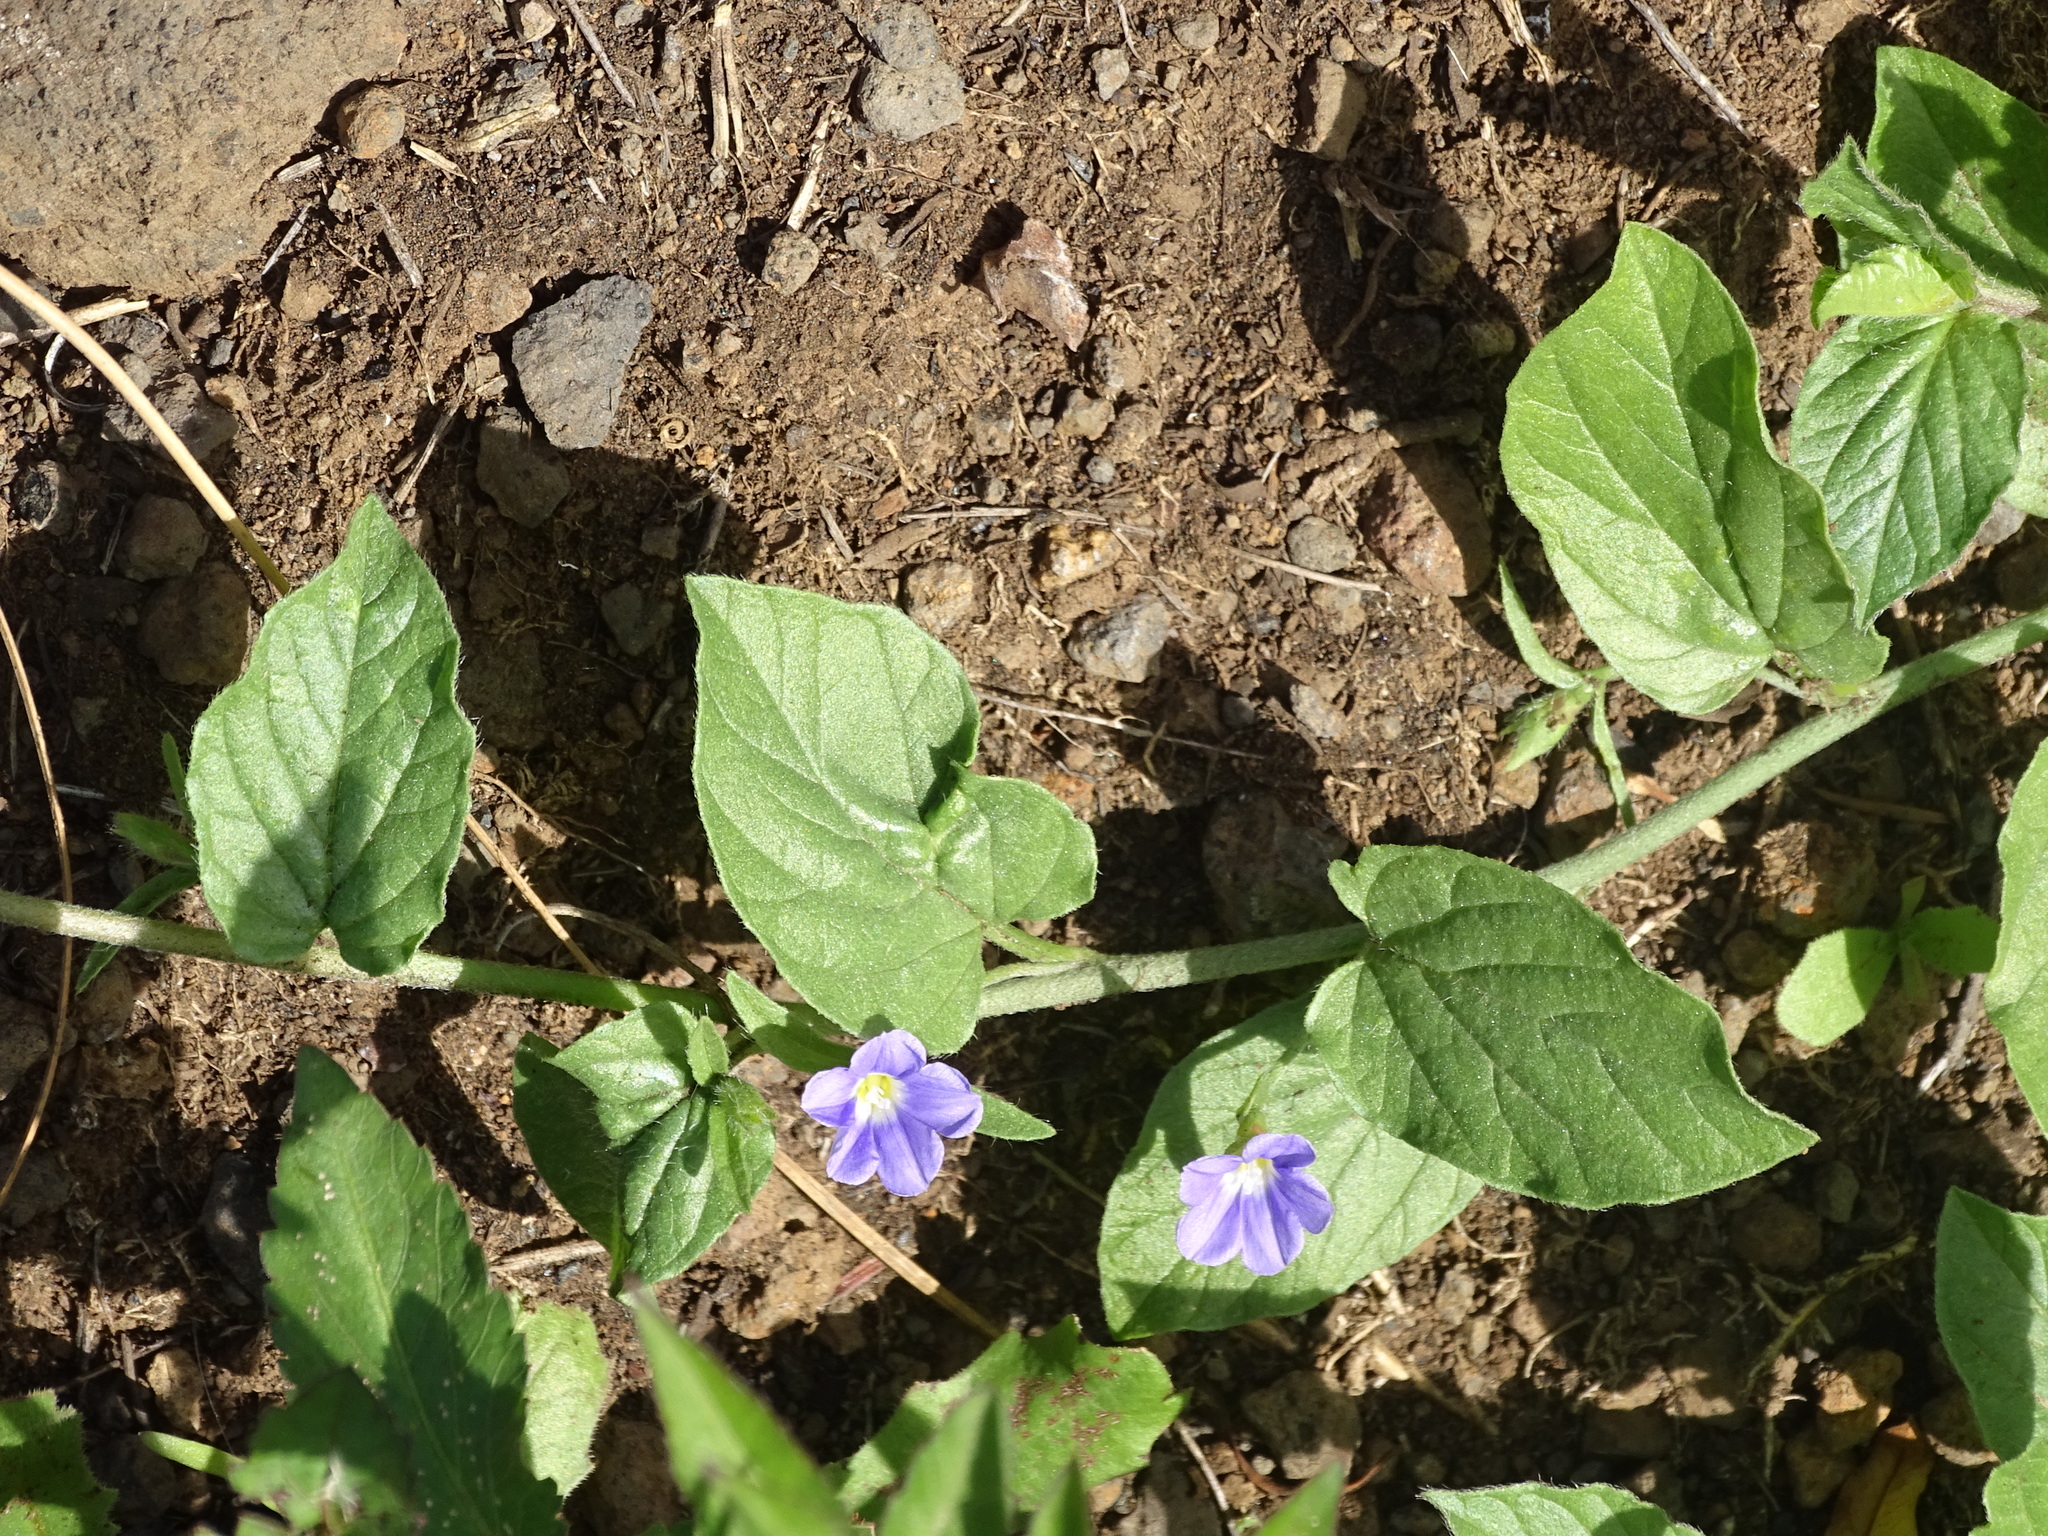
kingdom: Plantae
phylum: Tracheophyta
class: Magnoliopsida
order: Solanales
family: Convolvulaceae
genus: Convolvulus
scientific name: Convolvulus siculus
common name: Small blue-convolvulus
